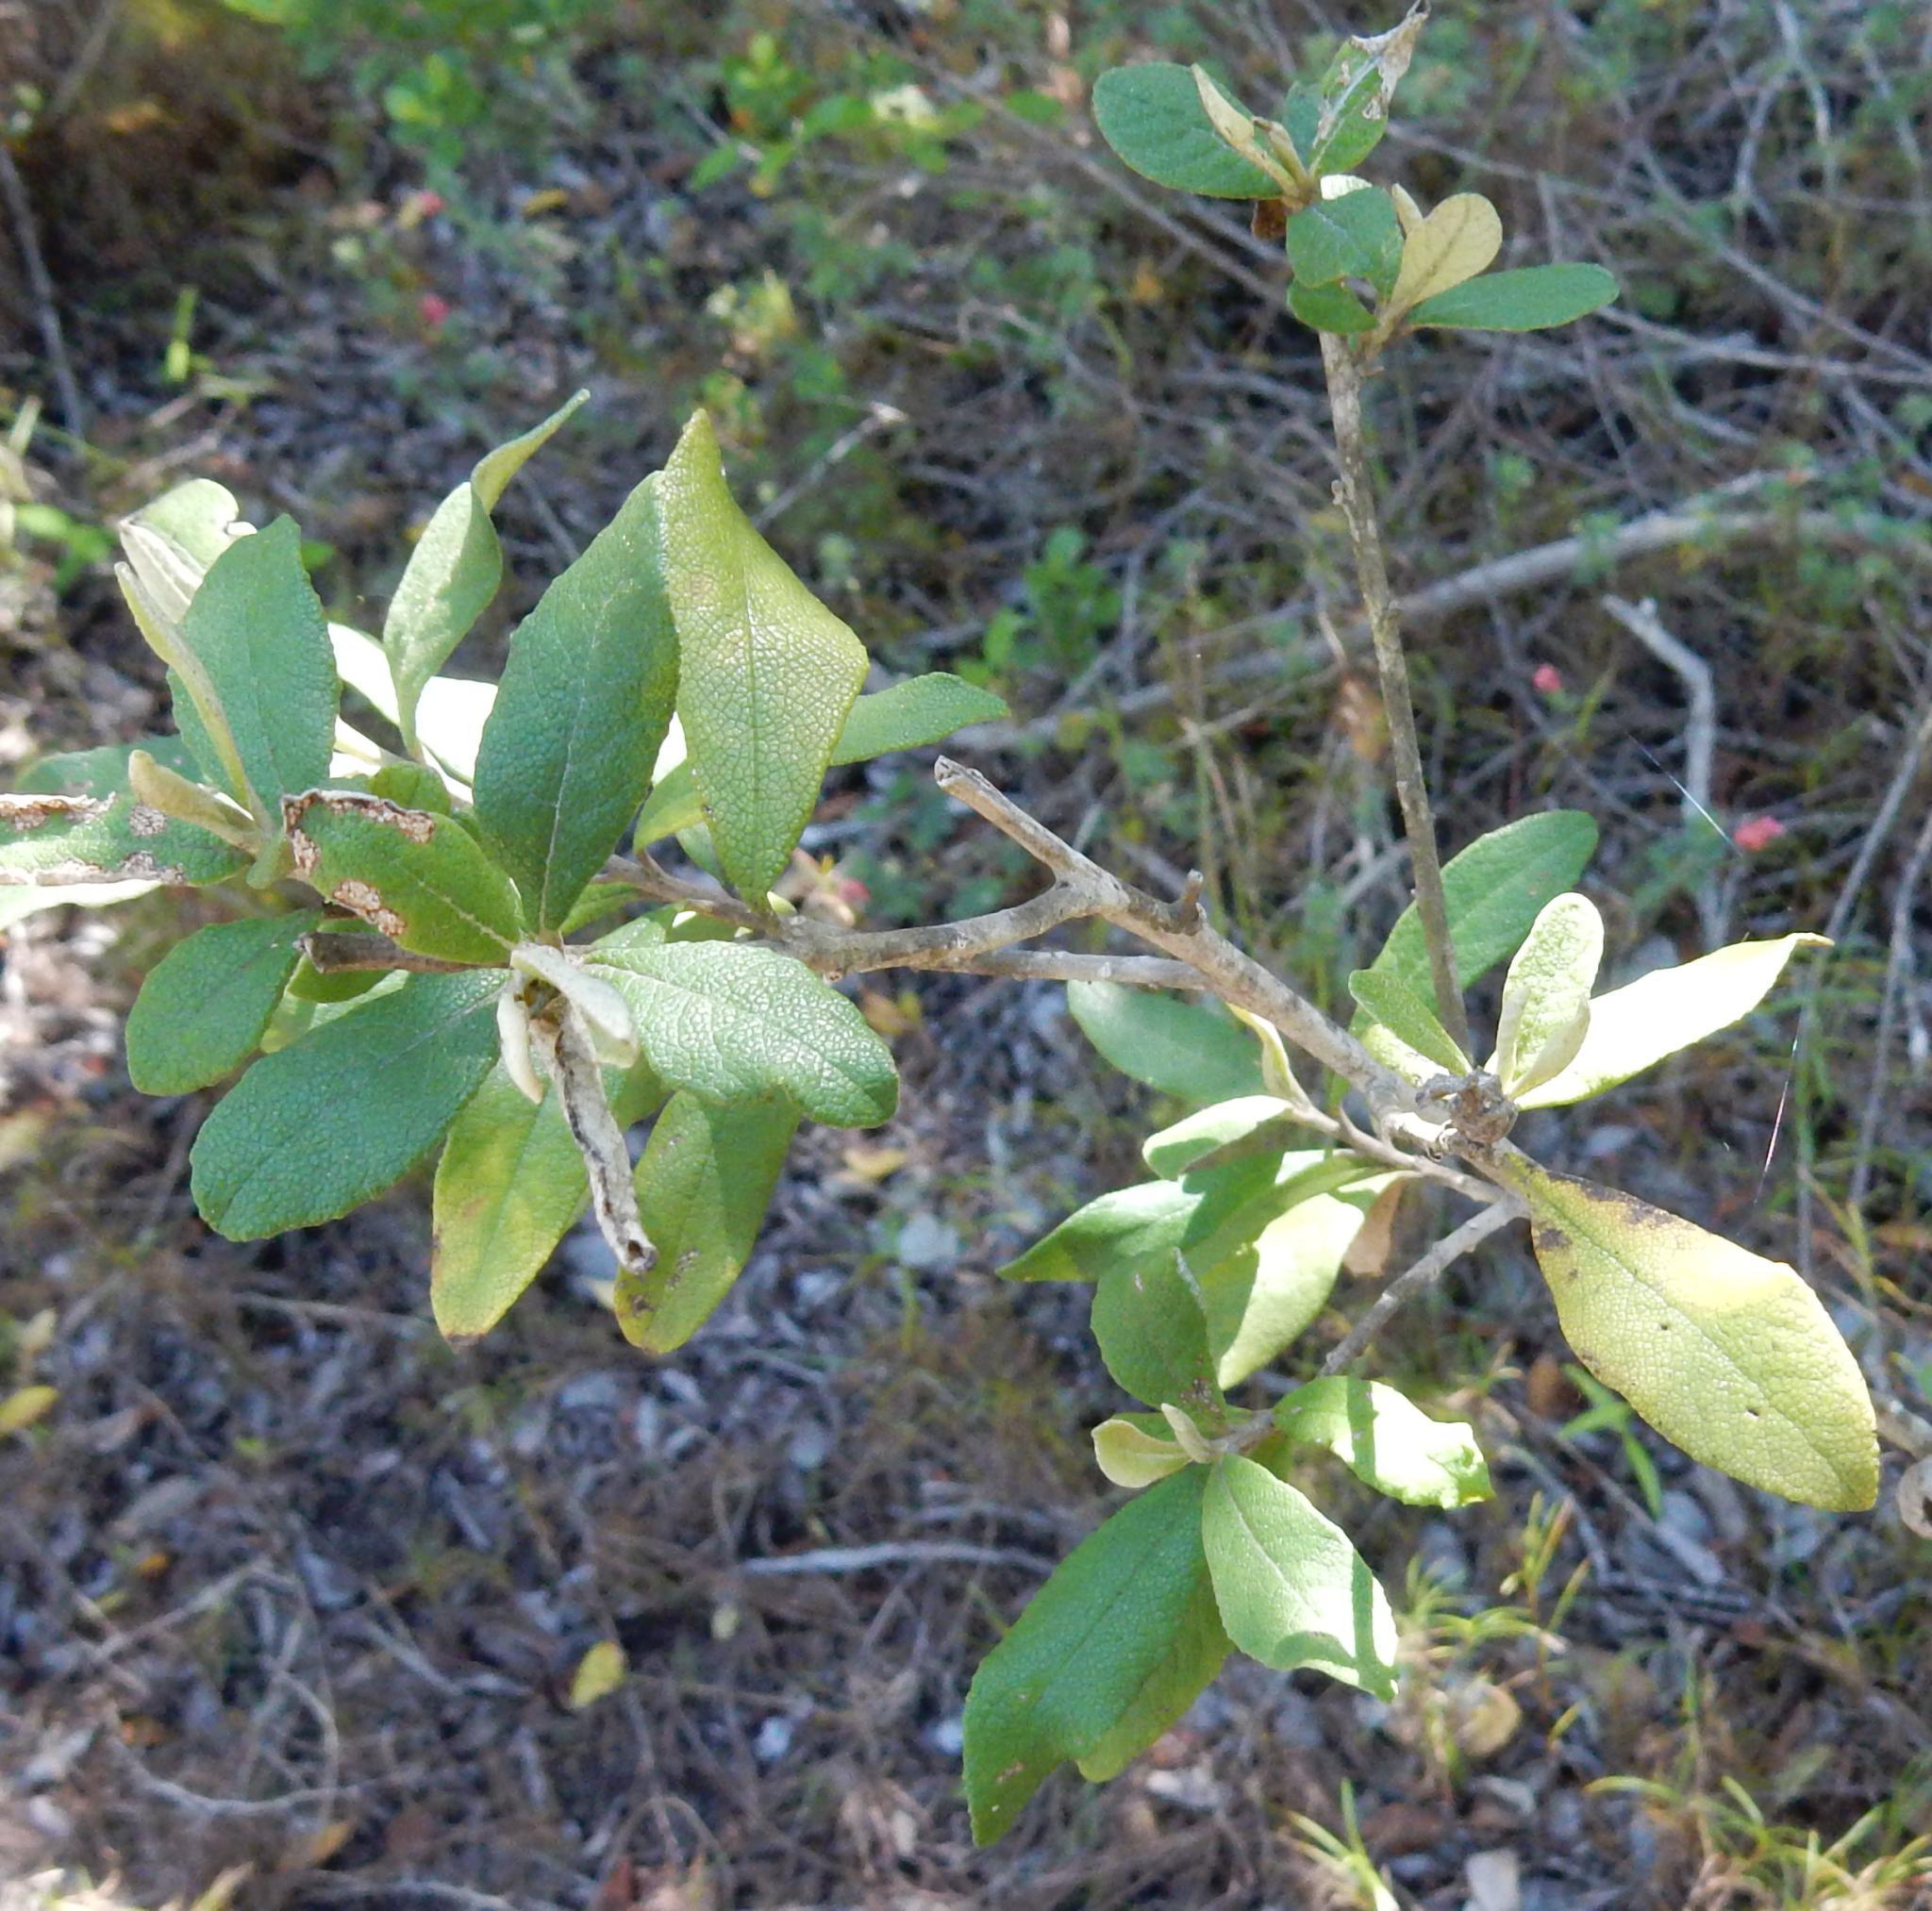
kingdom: Plantae
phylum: Tracheophyta
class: Magnoliopsida
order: Asterales
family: Asteraceae
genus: Tarchonanthus
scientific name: Tarchonanthus littoralis
